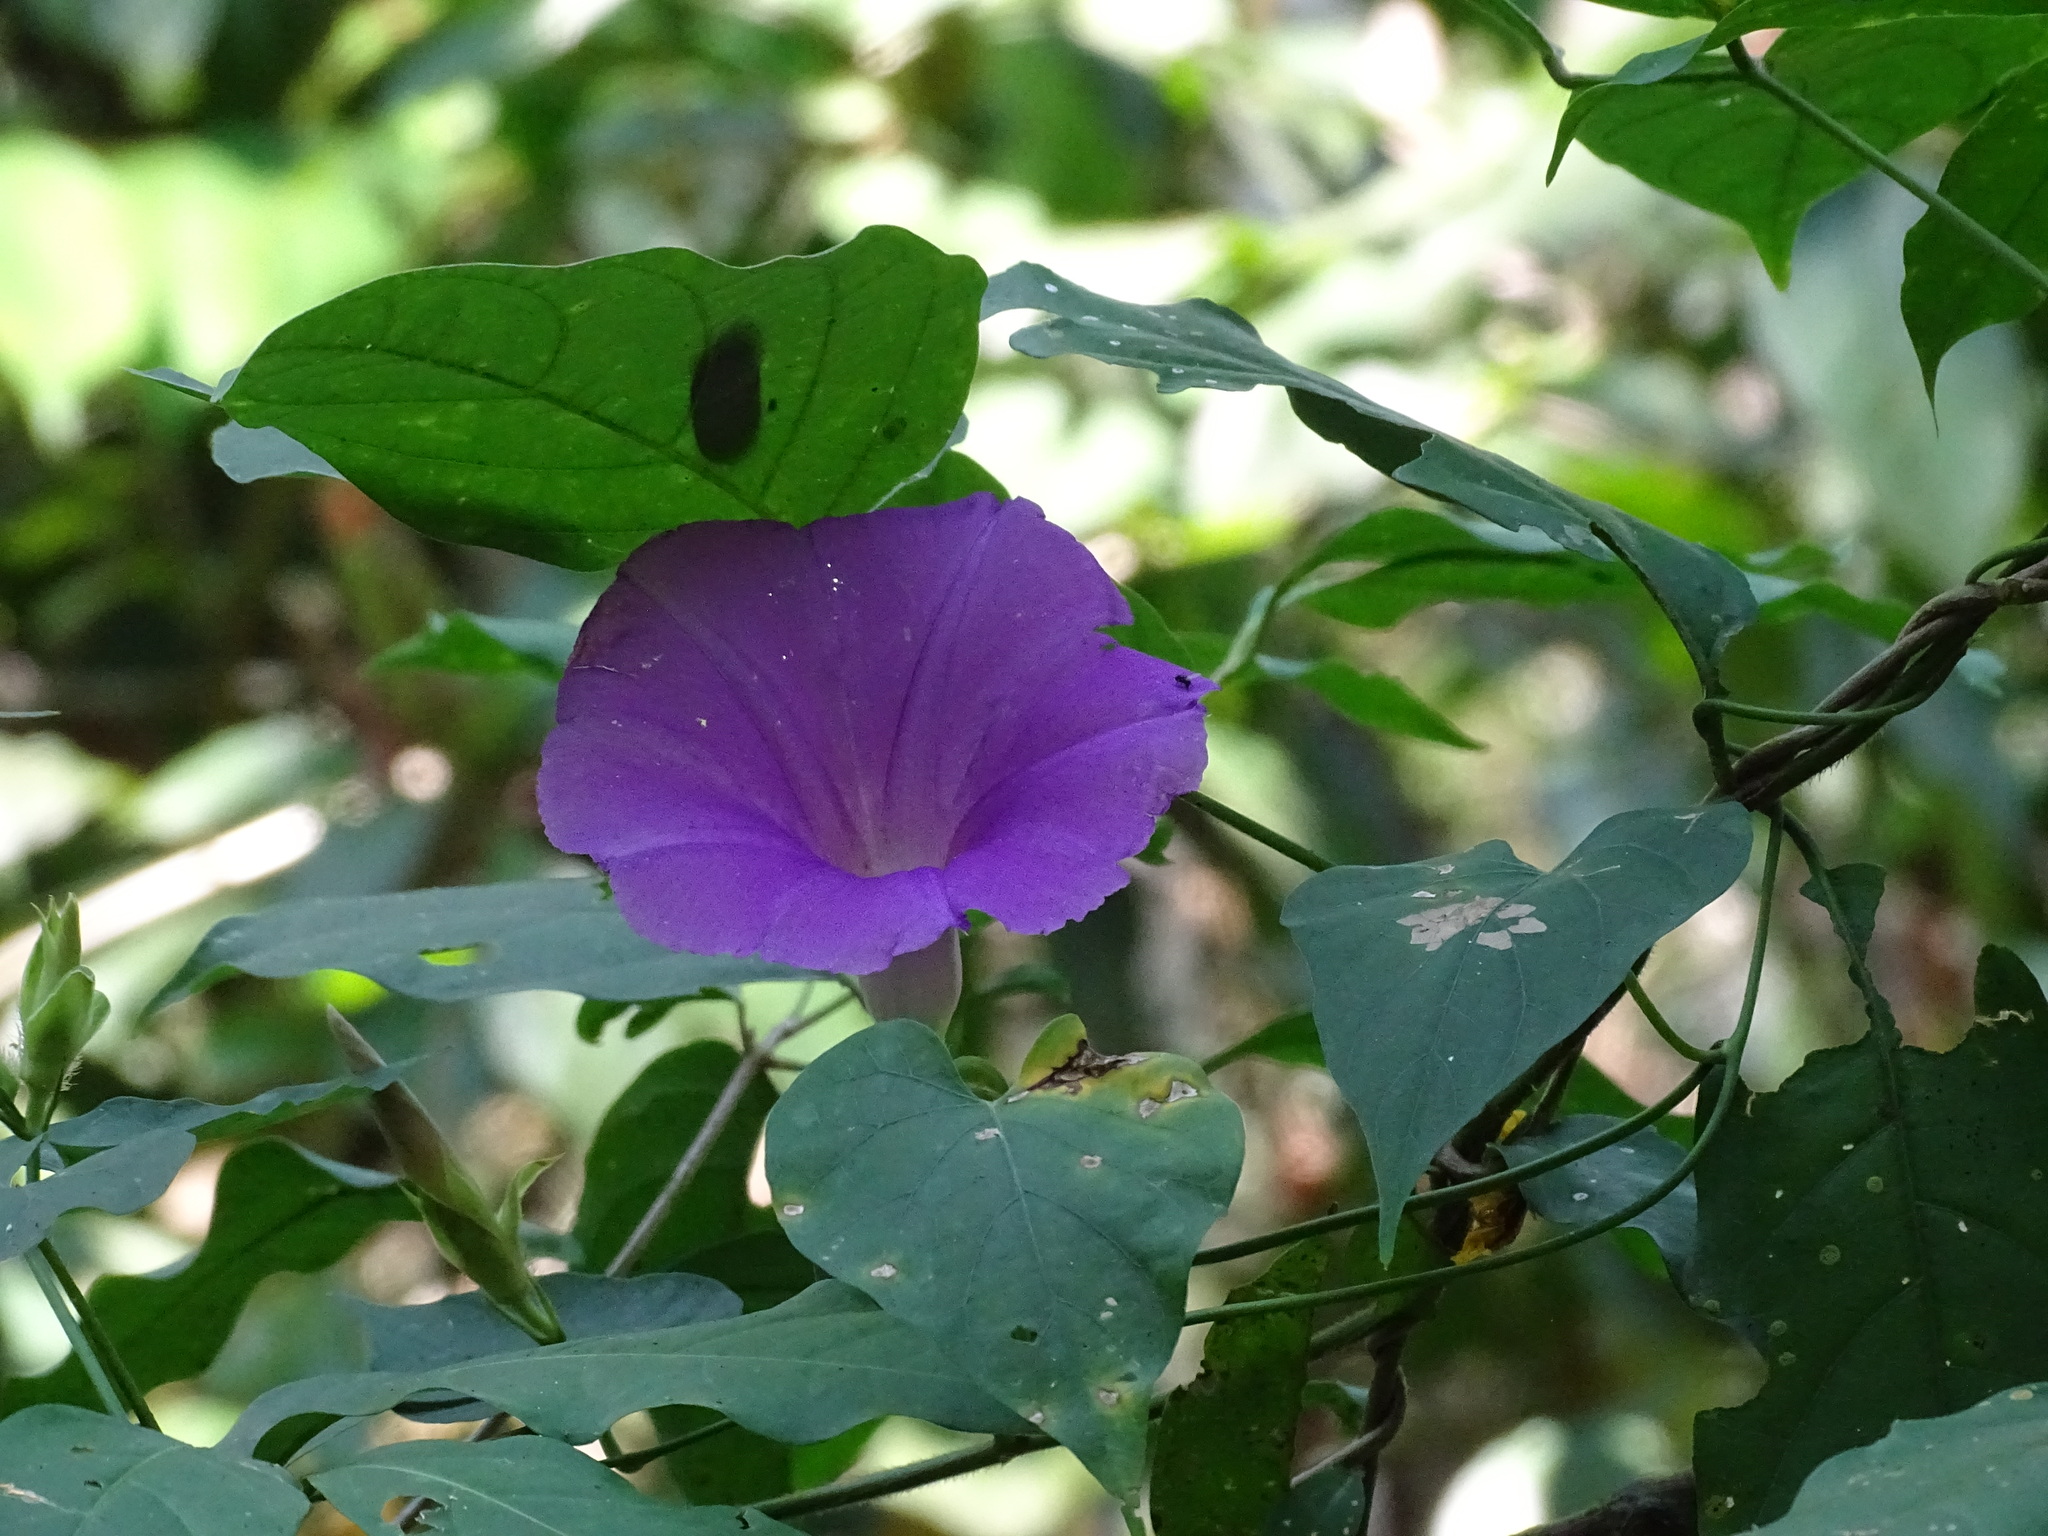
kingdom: Plantae
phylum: Tracheophyta
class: Magnoliopsida
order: Solanales
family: Convolvulaceae
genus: Ipomoea
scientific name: Ipomoea mitchelliae
